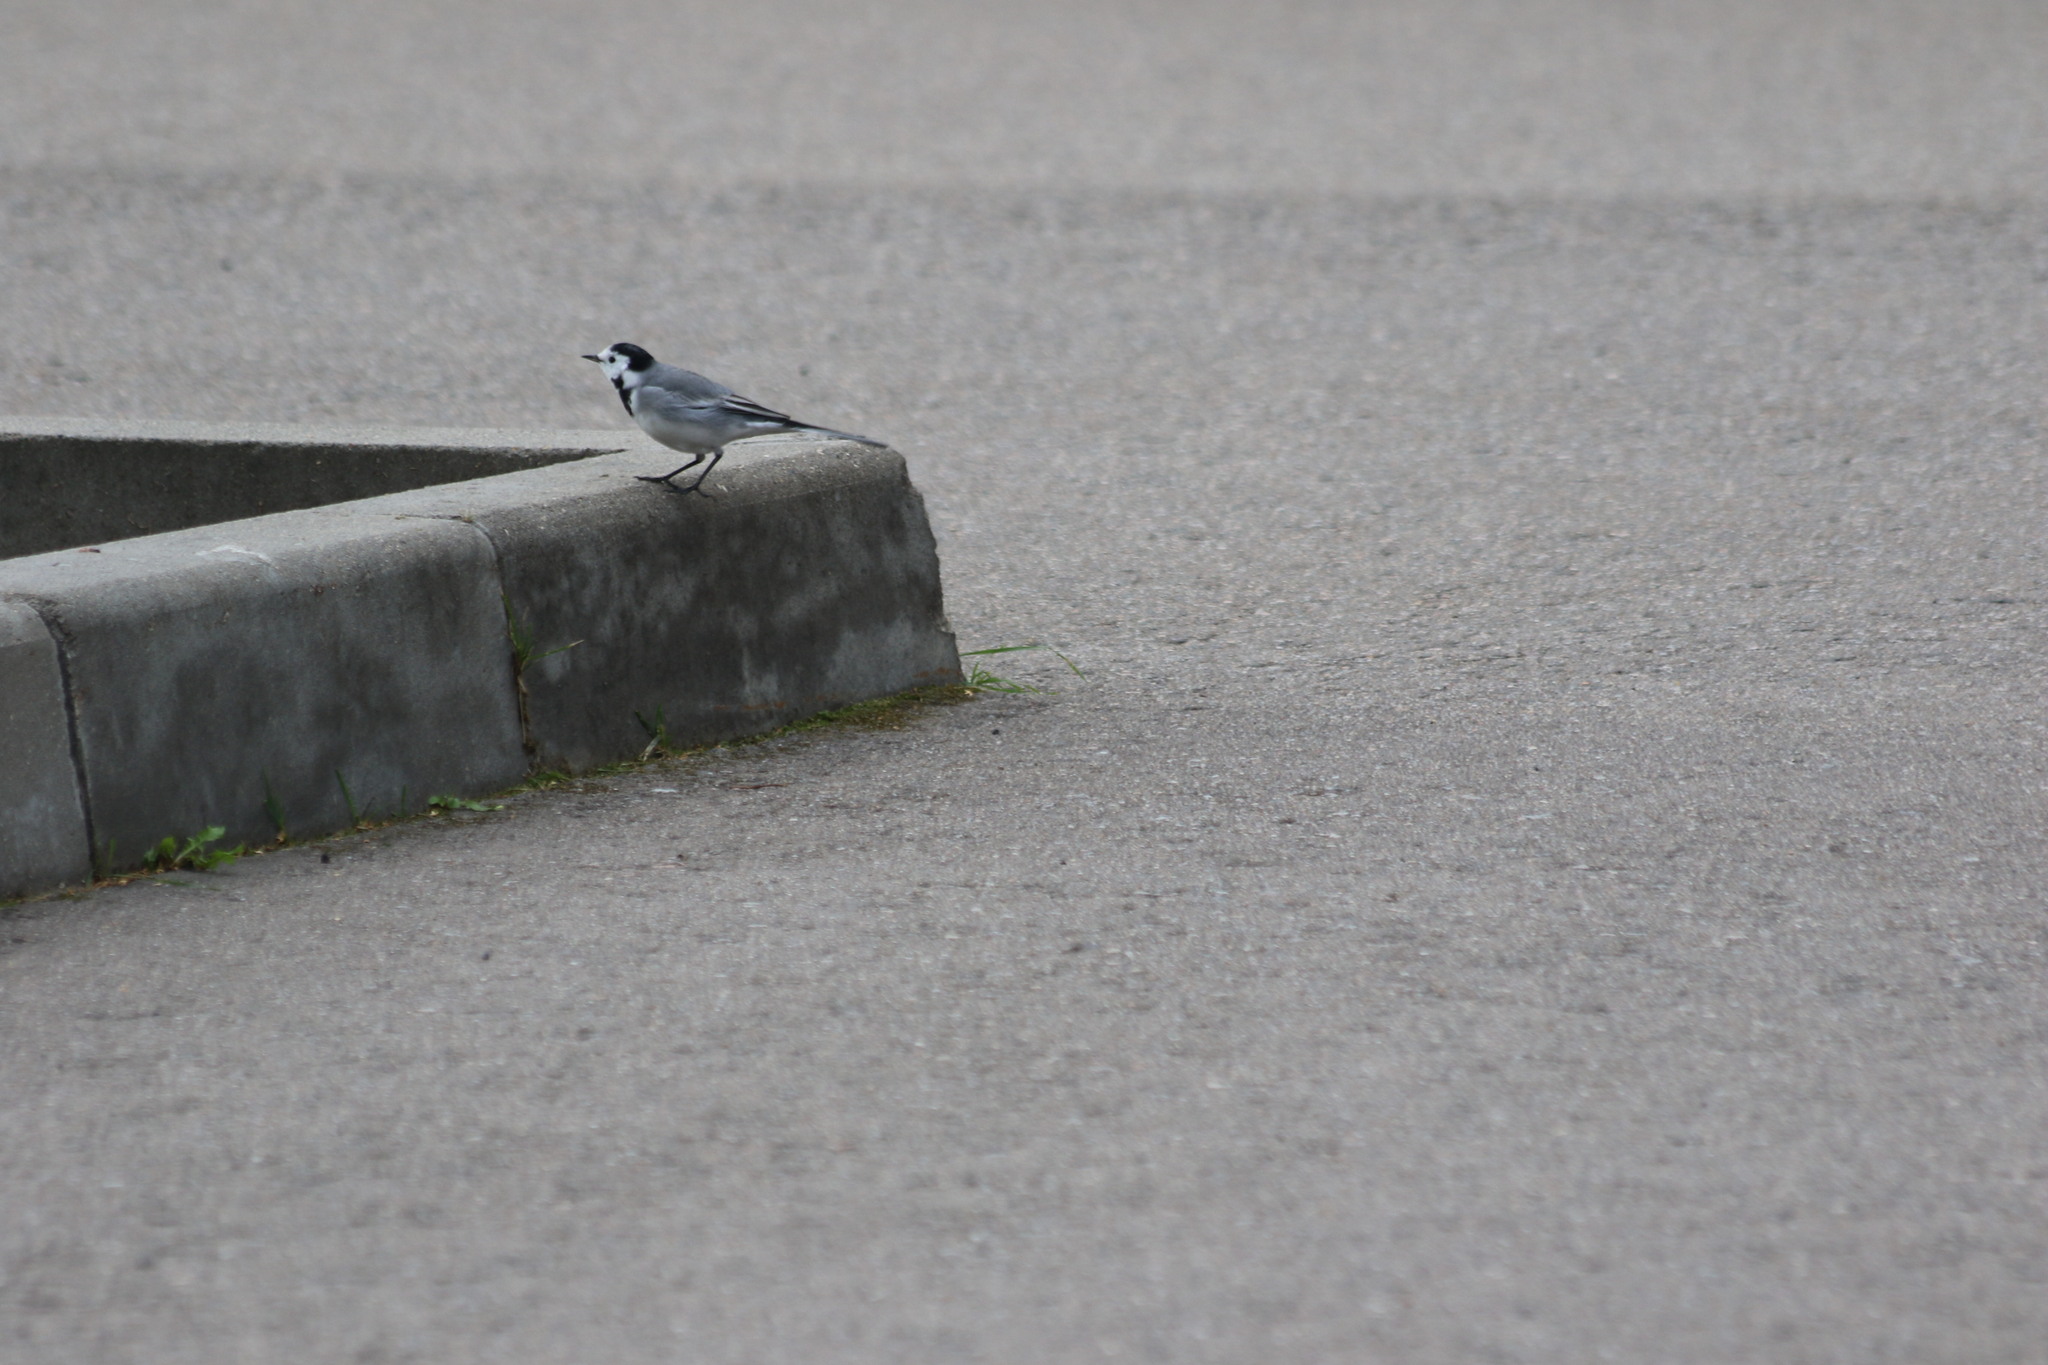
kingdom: Animalia
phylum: Chordata
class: Aves
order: Passeriformes
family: Motacillidae
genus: Motacilla
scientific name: Motacilla alba
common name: White wagtail
